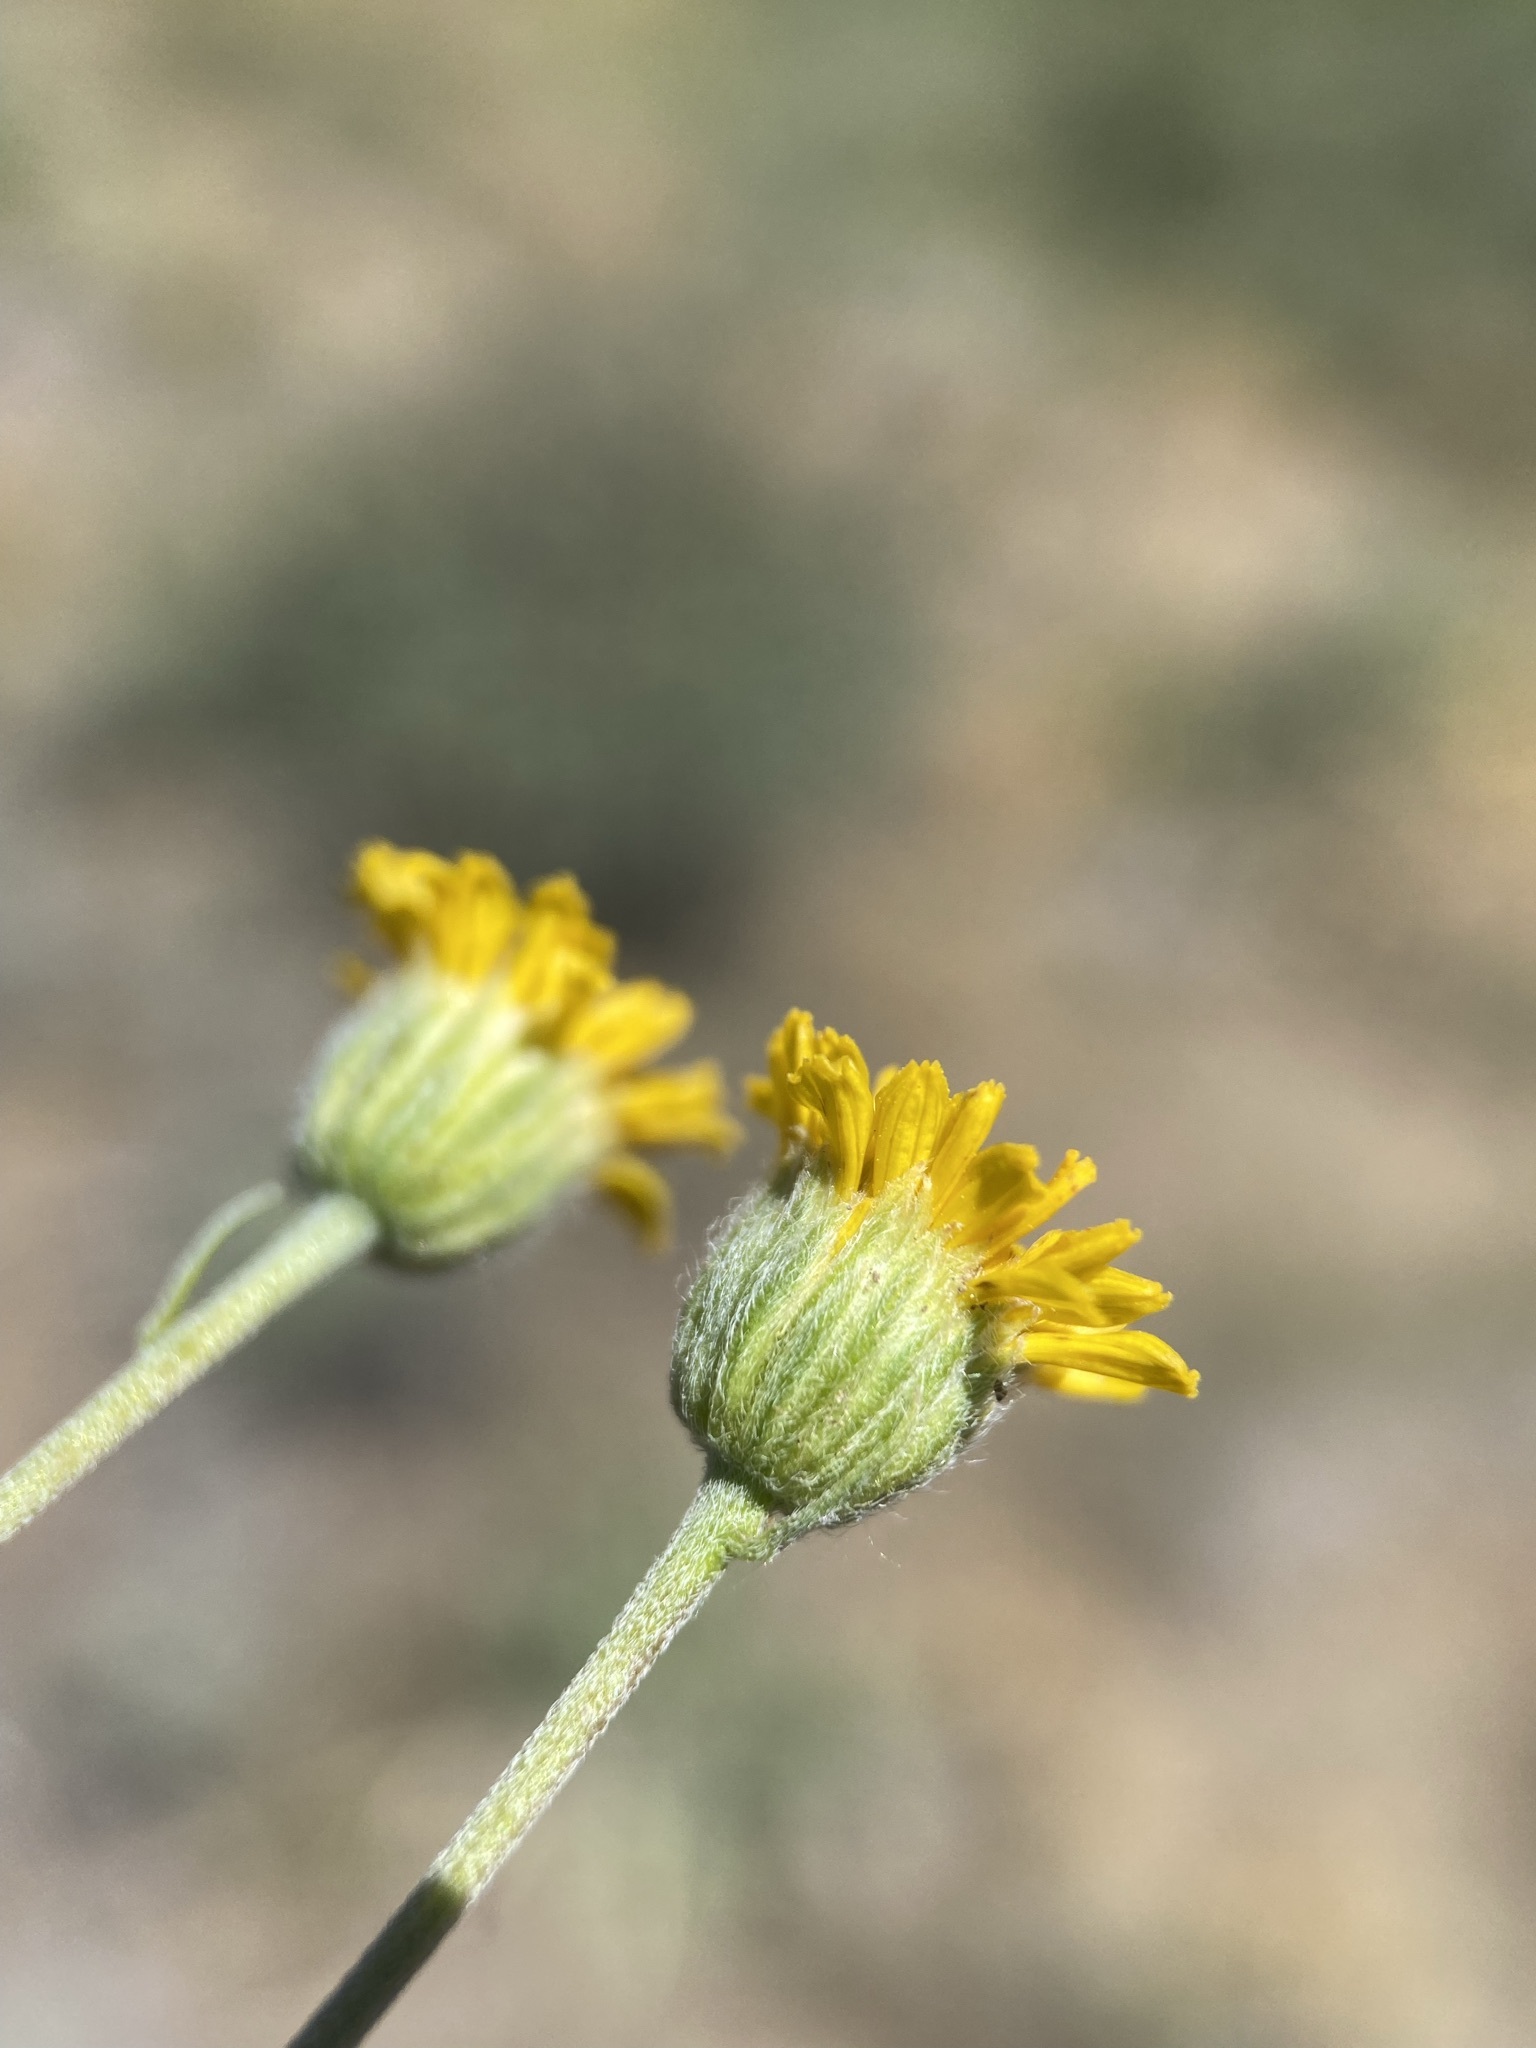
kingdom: Plantae
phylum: Tracheophyta
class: Magnoliopsida
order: Asterales
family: Asteraceae
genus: Erigeron
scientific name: Erigeron linearis
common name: Desert yellow fleabane
